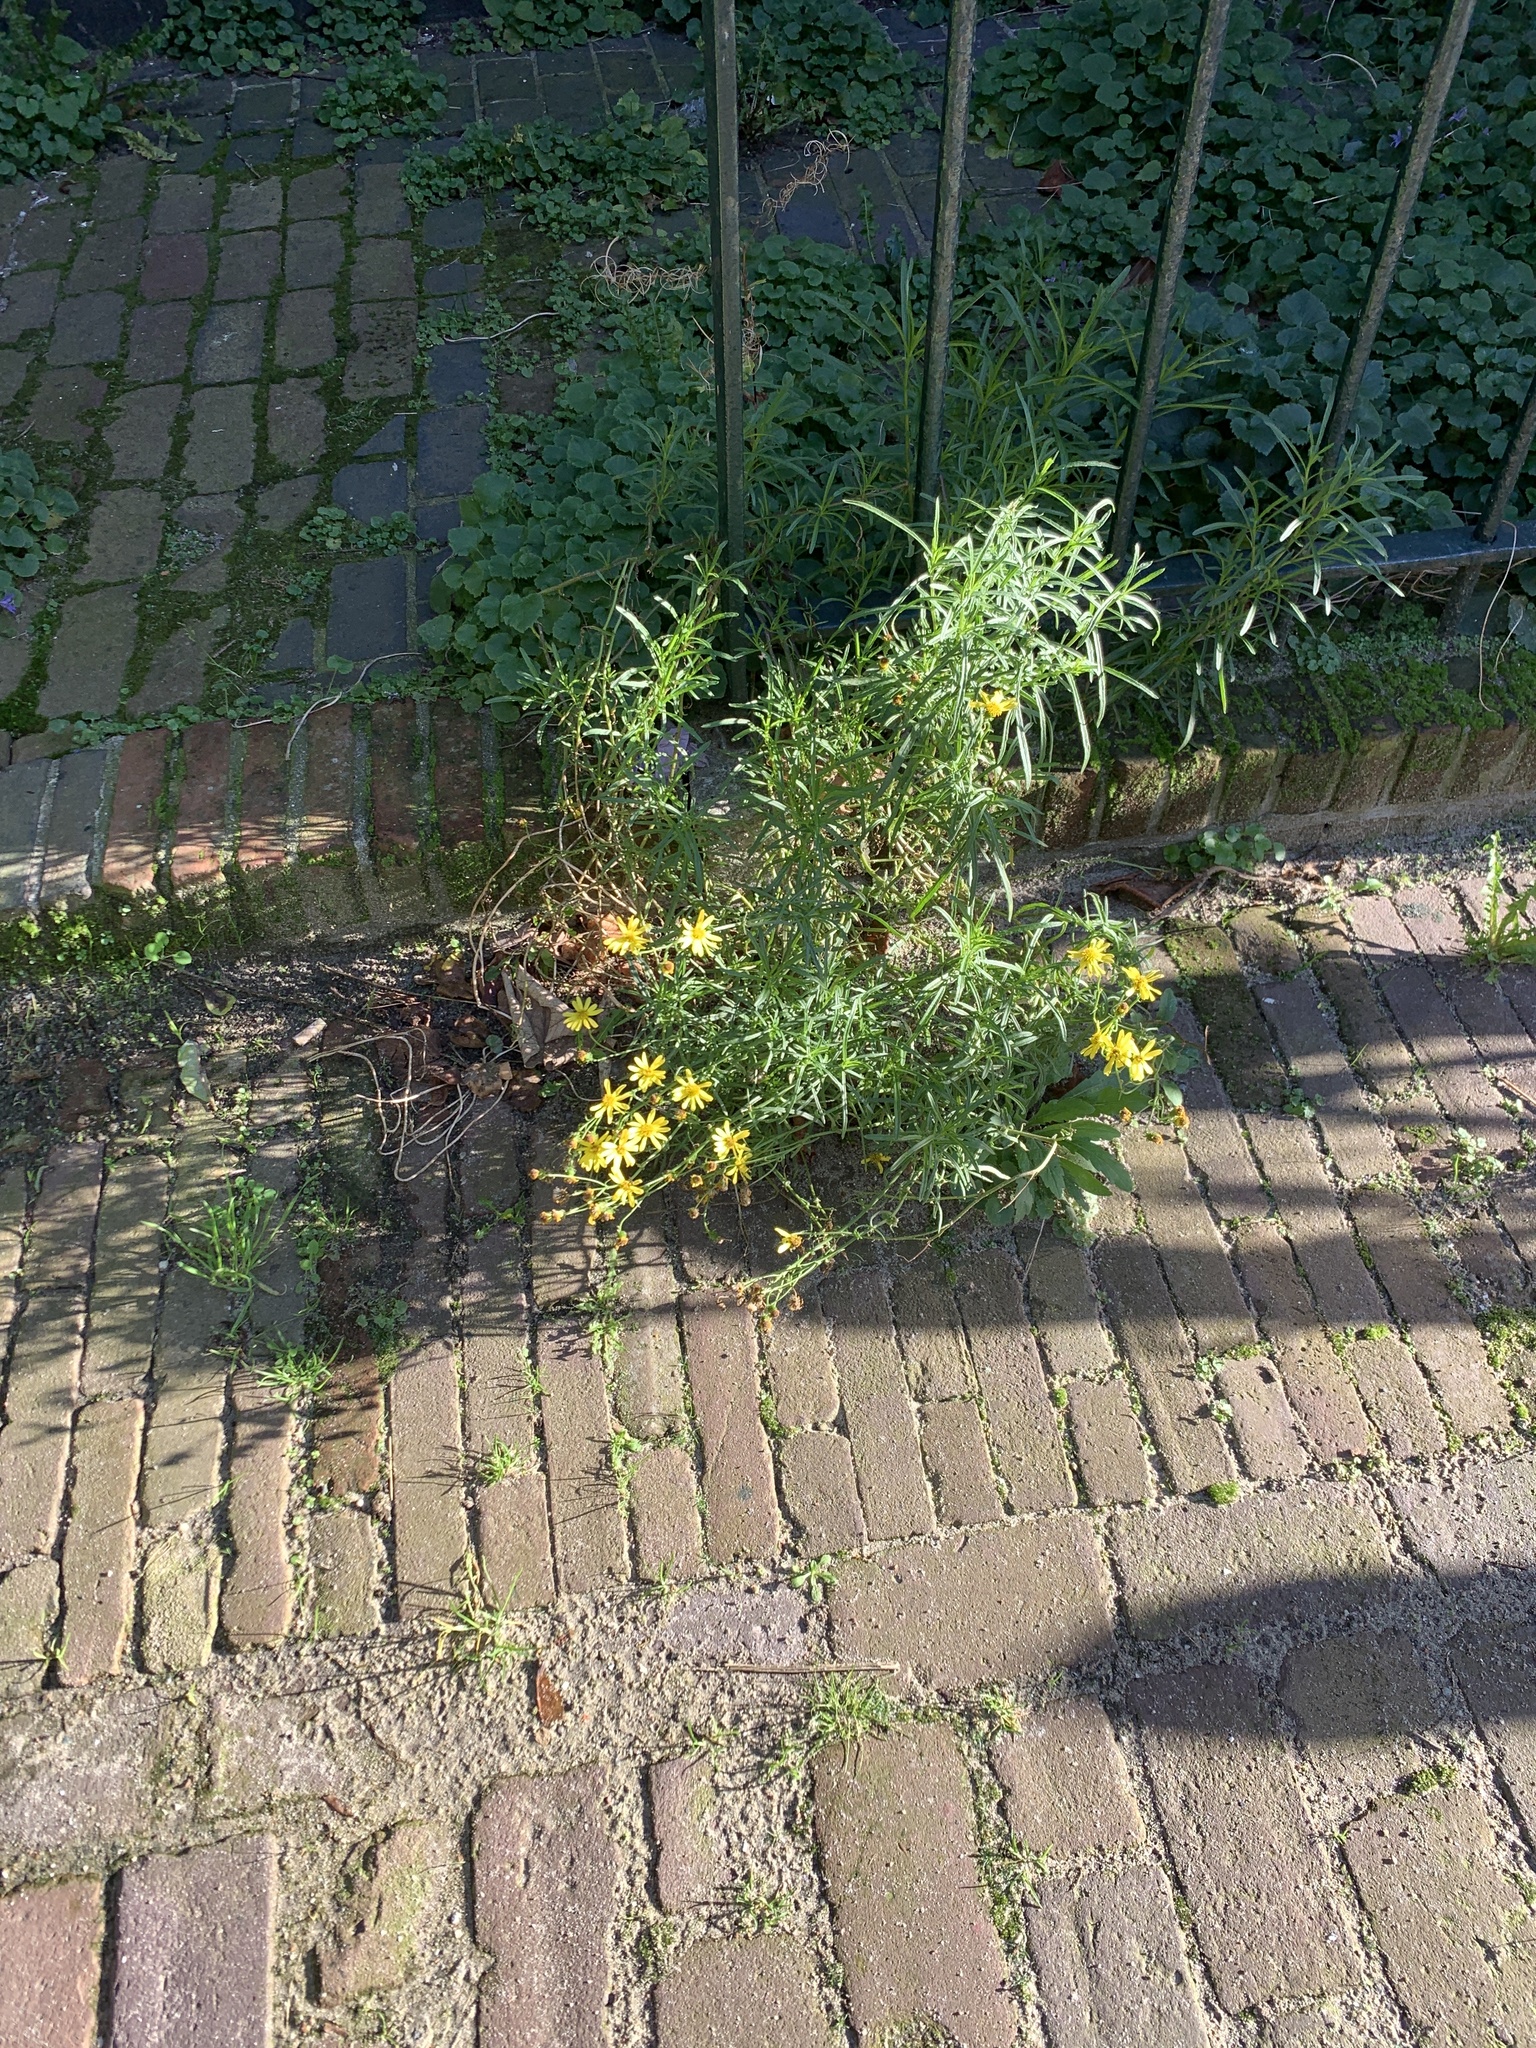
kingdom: Plantae
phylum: Tracheophyta
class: Magnoliopsida
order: Asterales
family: Asteraceae
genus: Senecio
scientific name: Senecio inaequidens
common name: Narrow-leaved ragwort
